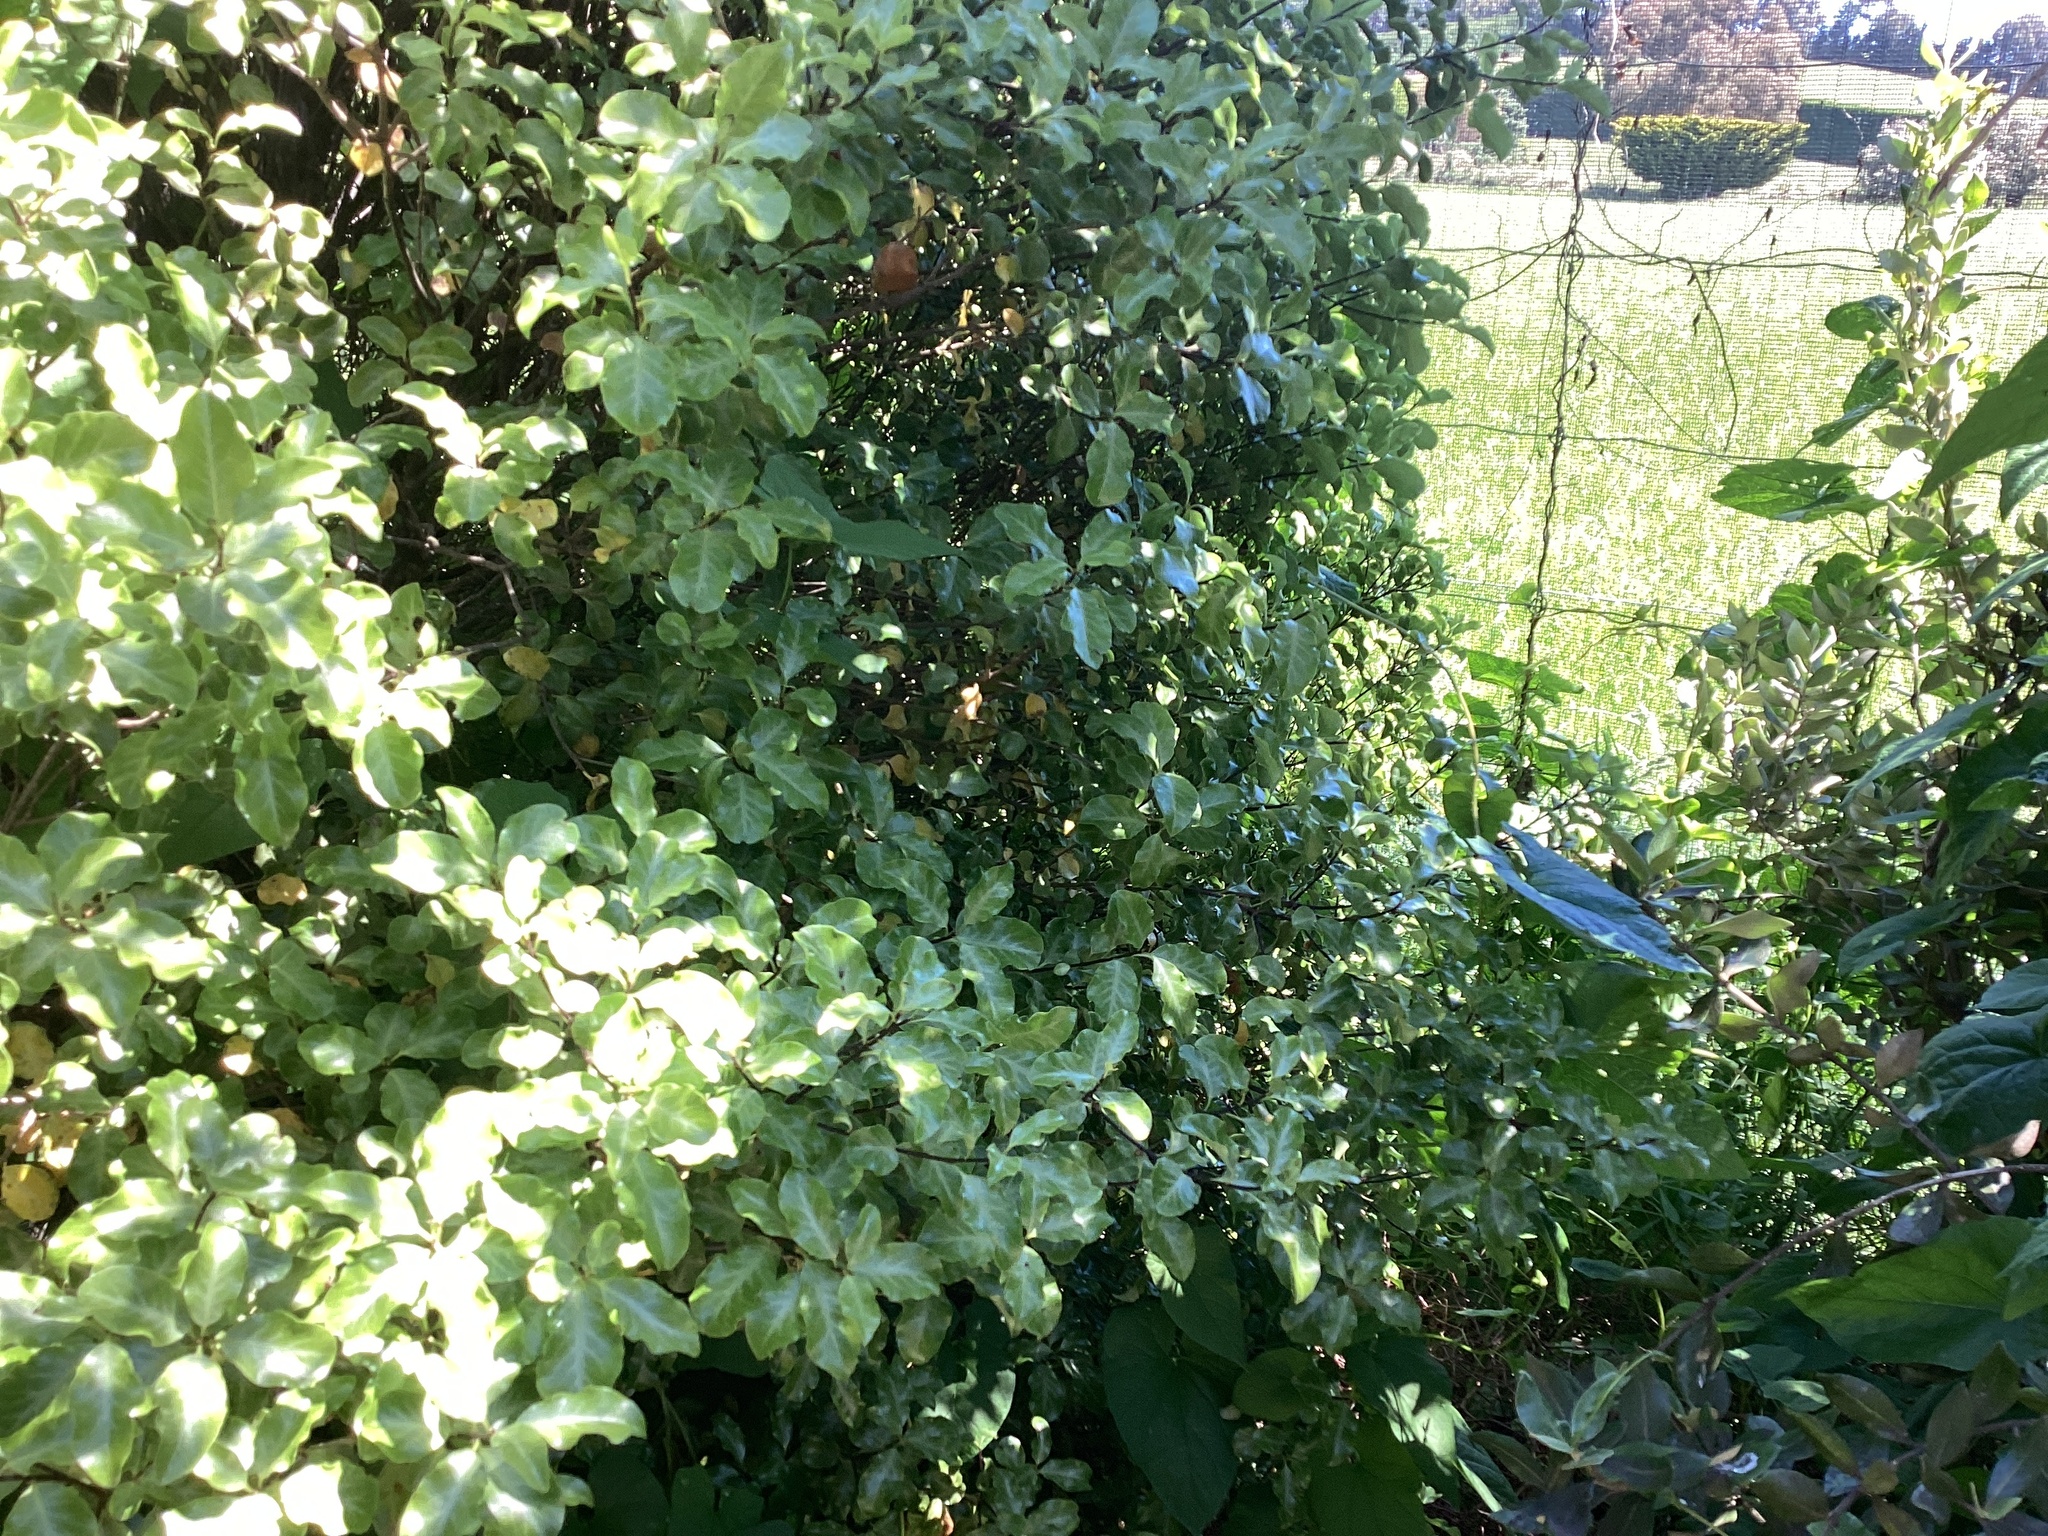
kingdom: Plantae
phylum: Tracheophyta
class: Magnoliopsida
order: Apiales
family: Pittosporaceae
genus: Pittosporum
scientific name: Pittosporum tenuifolium
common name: Kohuhu
